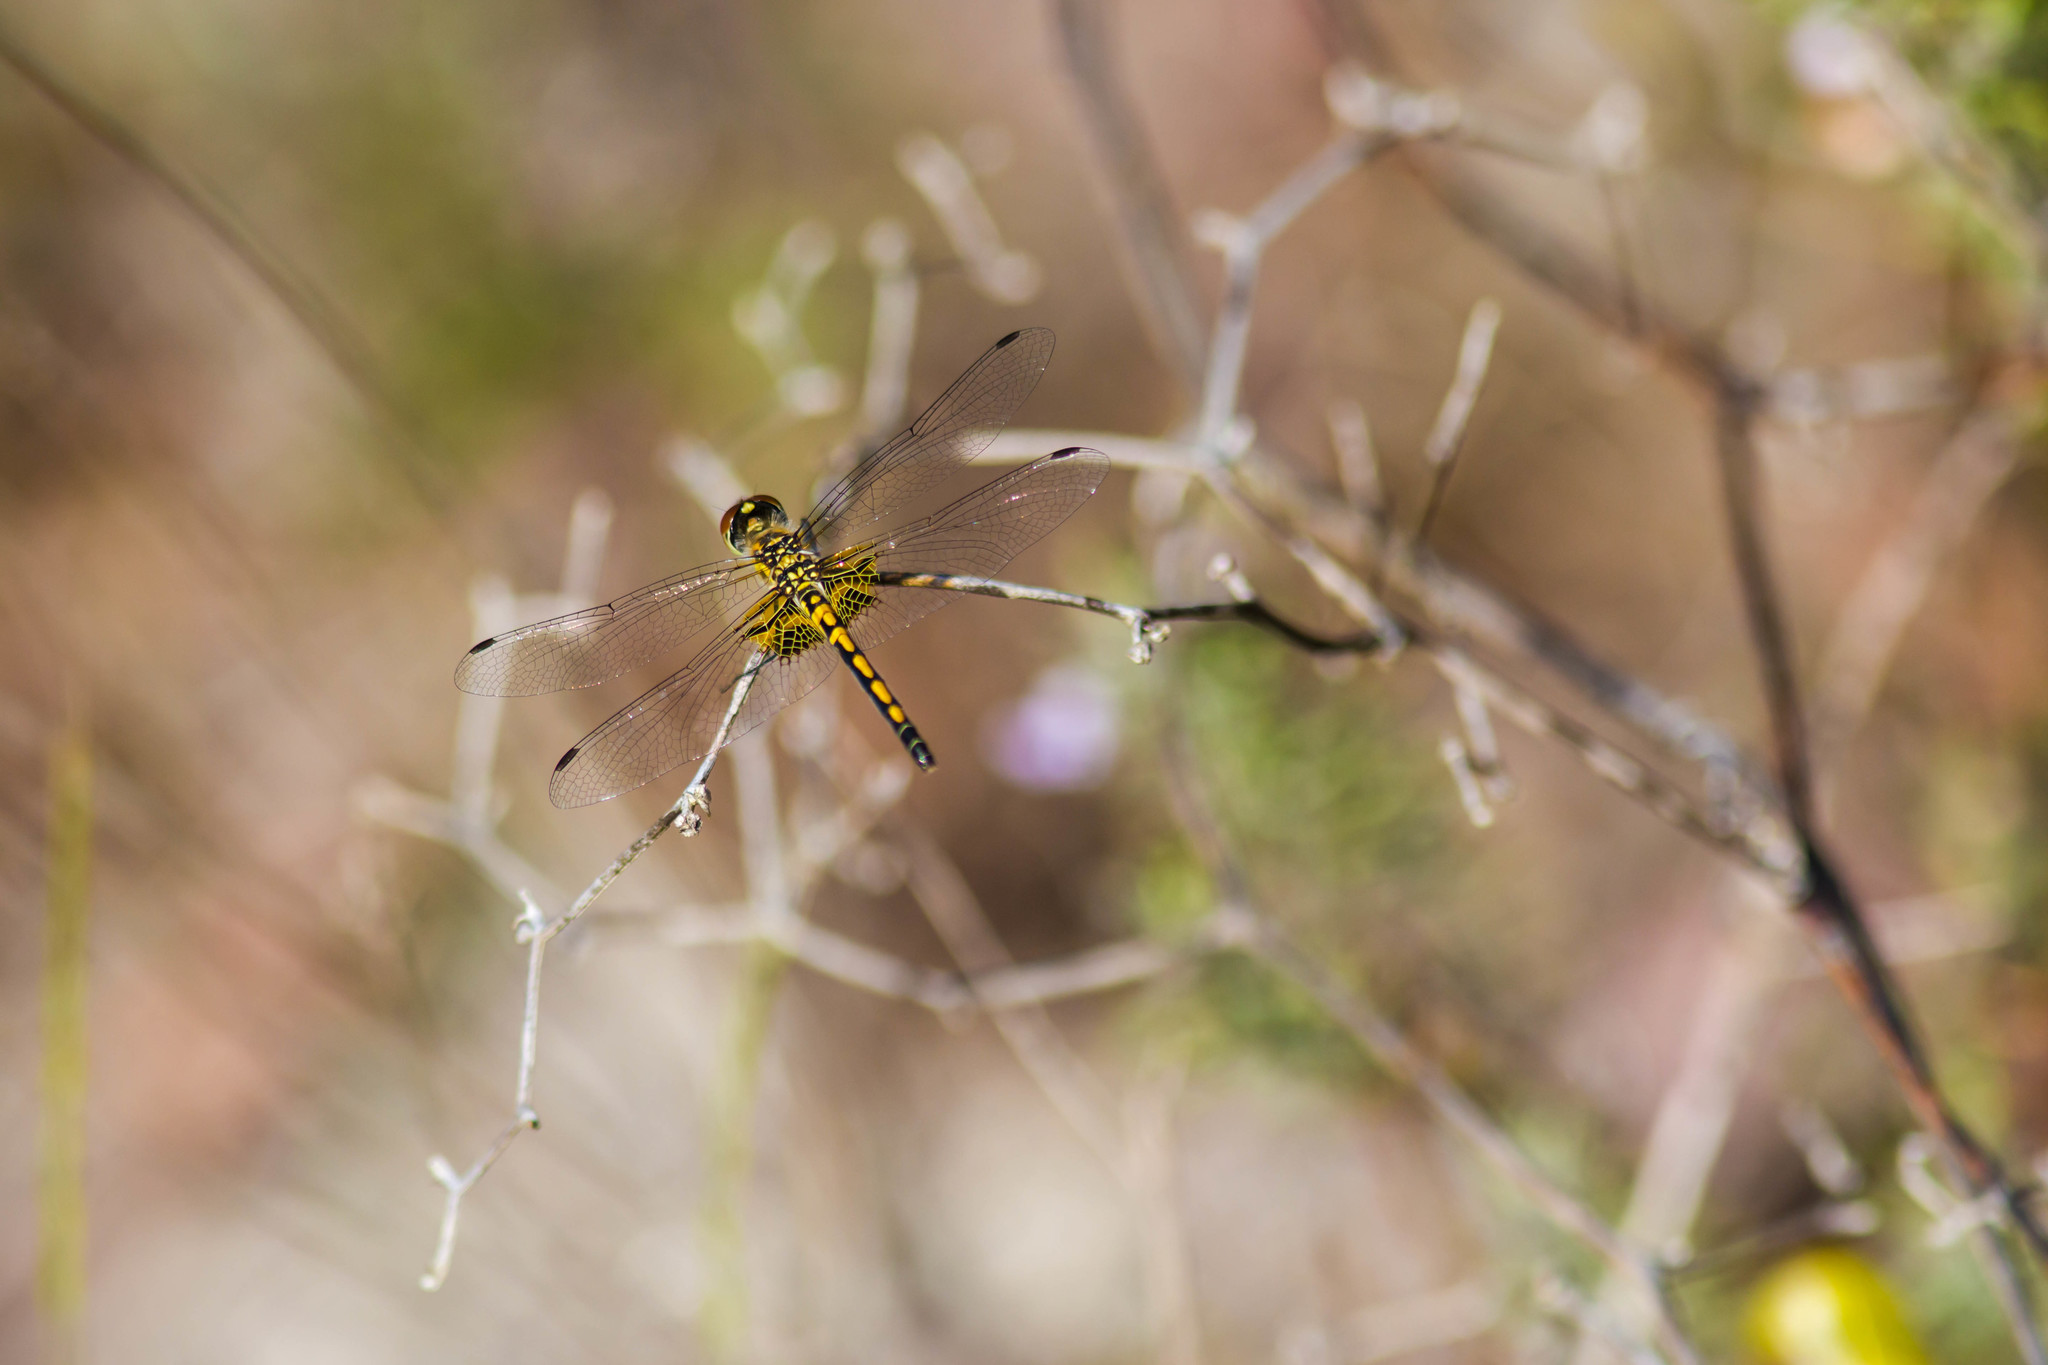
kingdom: Animalia
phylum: Arthropoda
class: Insecta
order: Odonata
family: Libellulidae
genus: Celithemis
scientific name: Celithemis ornata
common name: Ornate pennant
